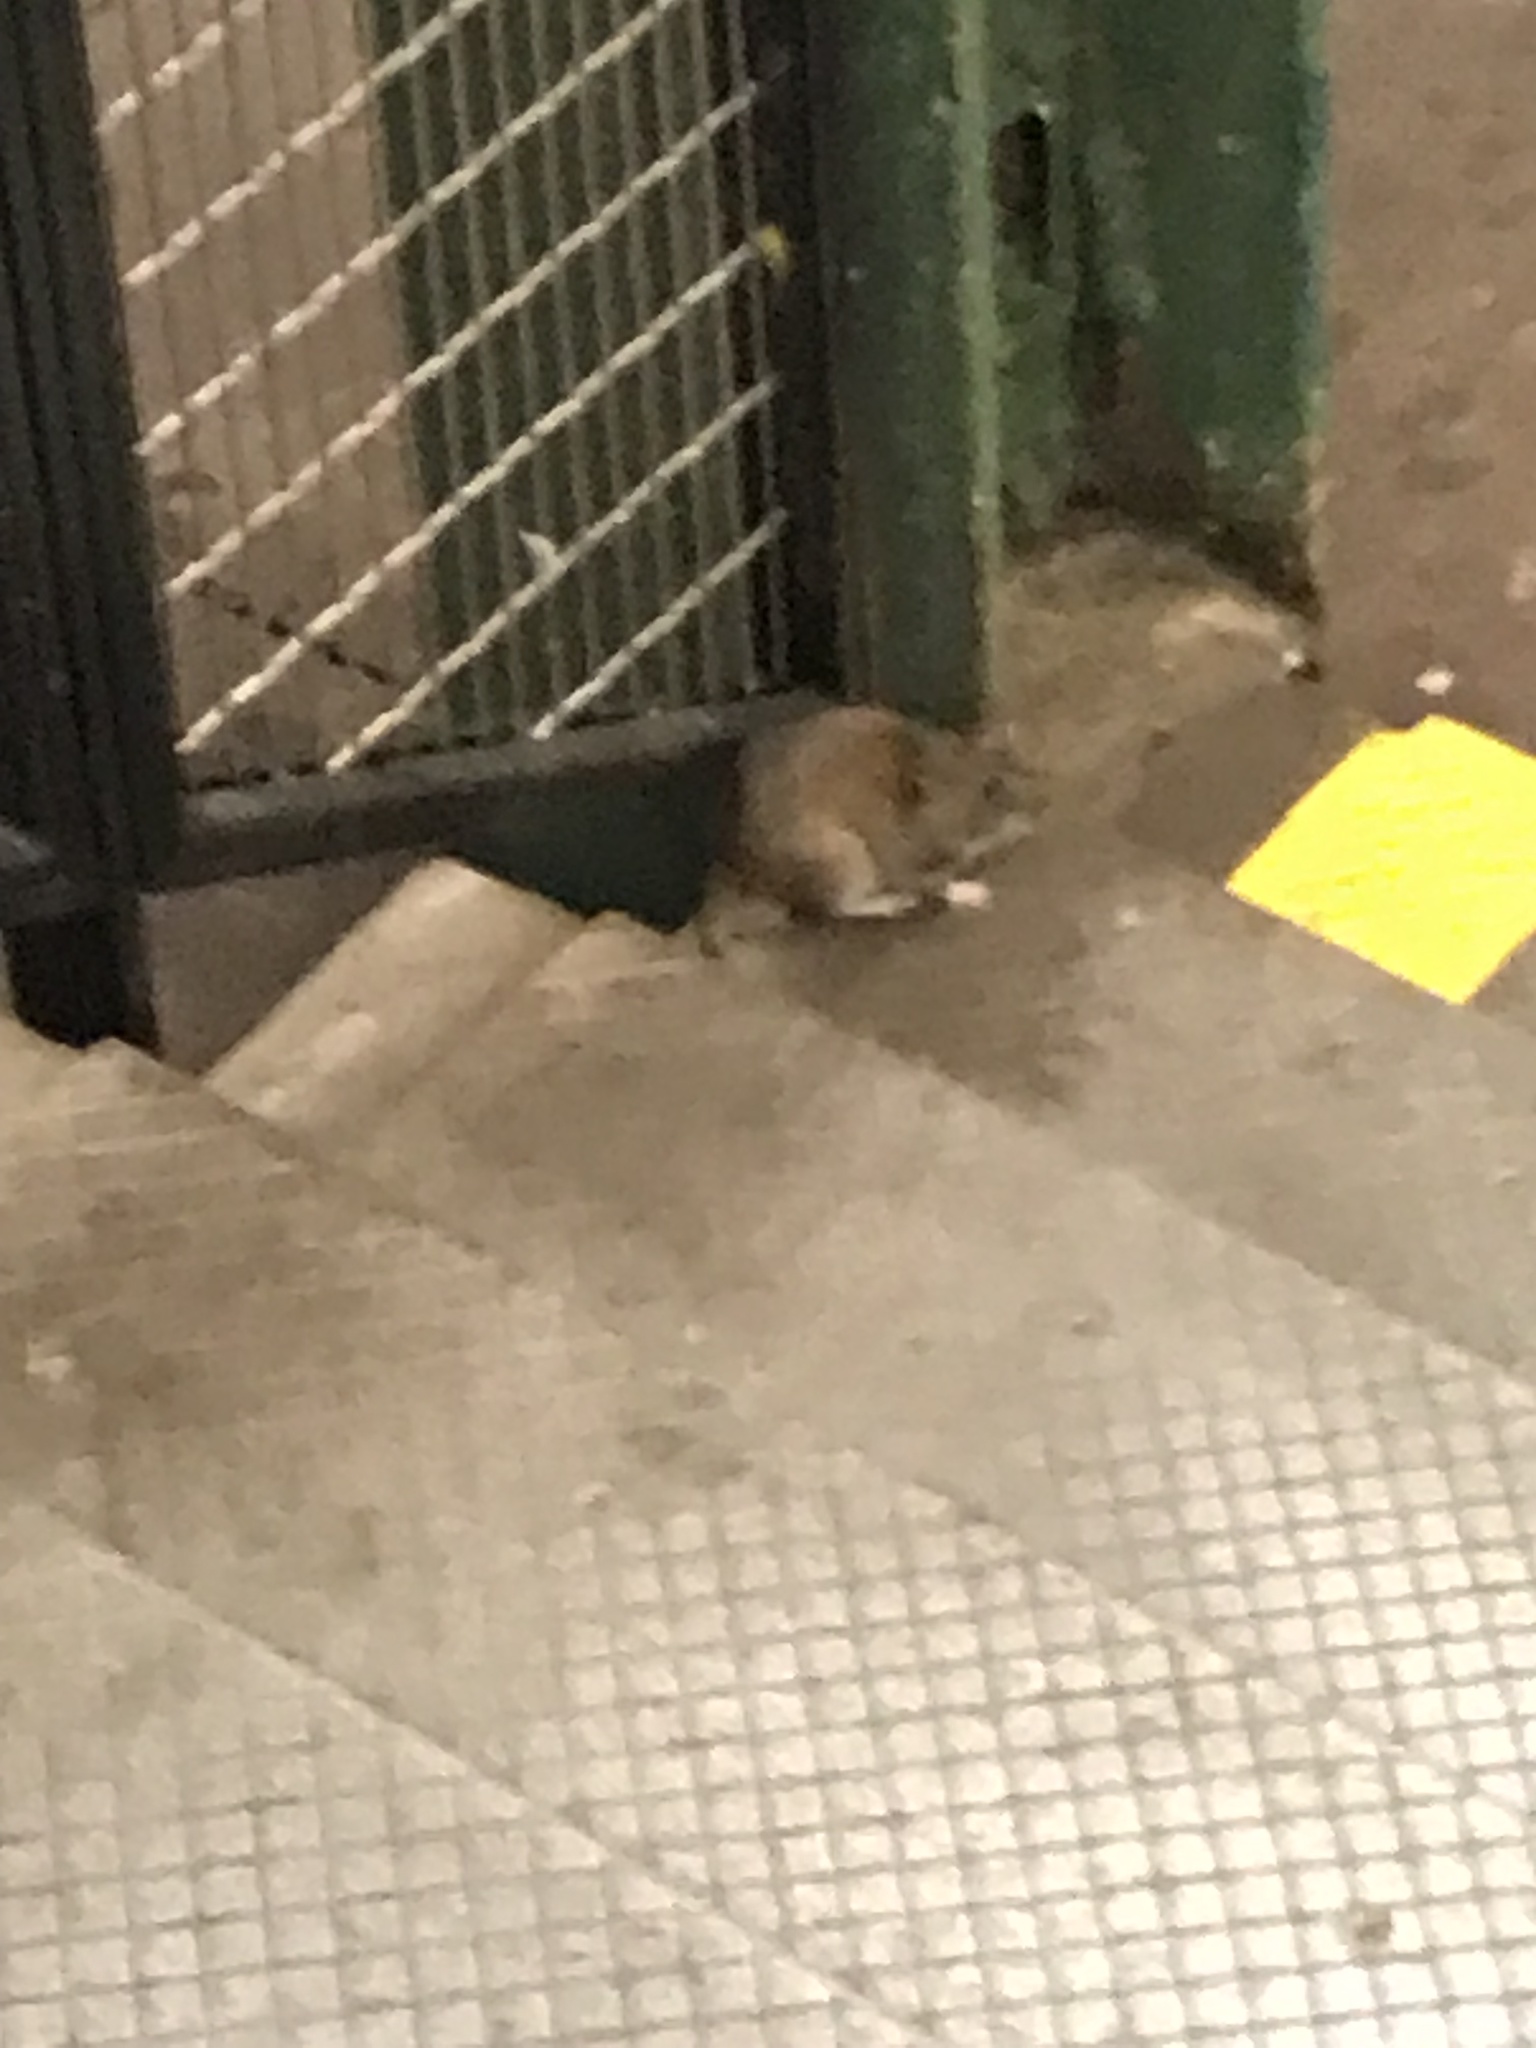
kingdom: Animalia
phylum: Chordata
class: Mammalia
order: Rodentia
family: Muridae
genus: Rattus
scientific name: Rattus norvegicus
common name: Brown rat
